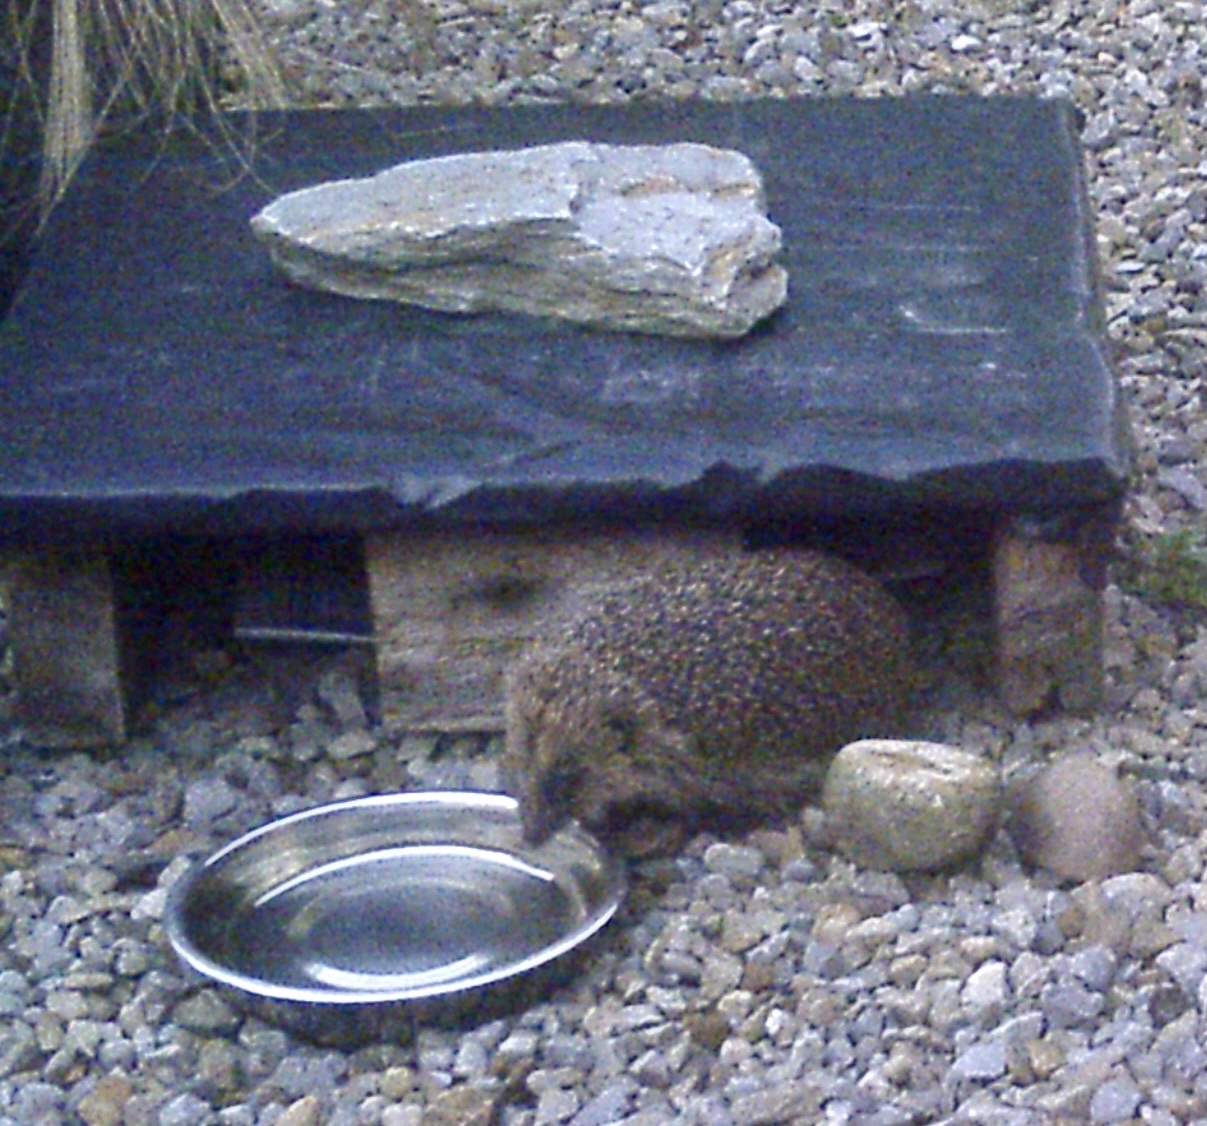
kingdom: Animalia
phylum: Chordata
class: Mammalia
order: Erinaceomorpha
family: Erinaceidae
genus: Erinaceus
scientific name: Erinaceus europaeus
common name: West european hedgehog
